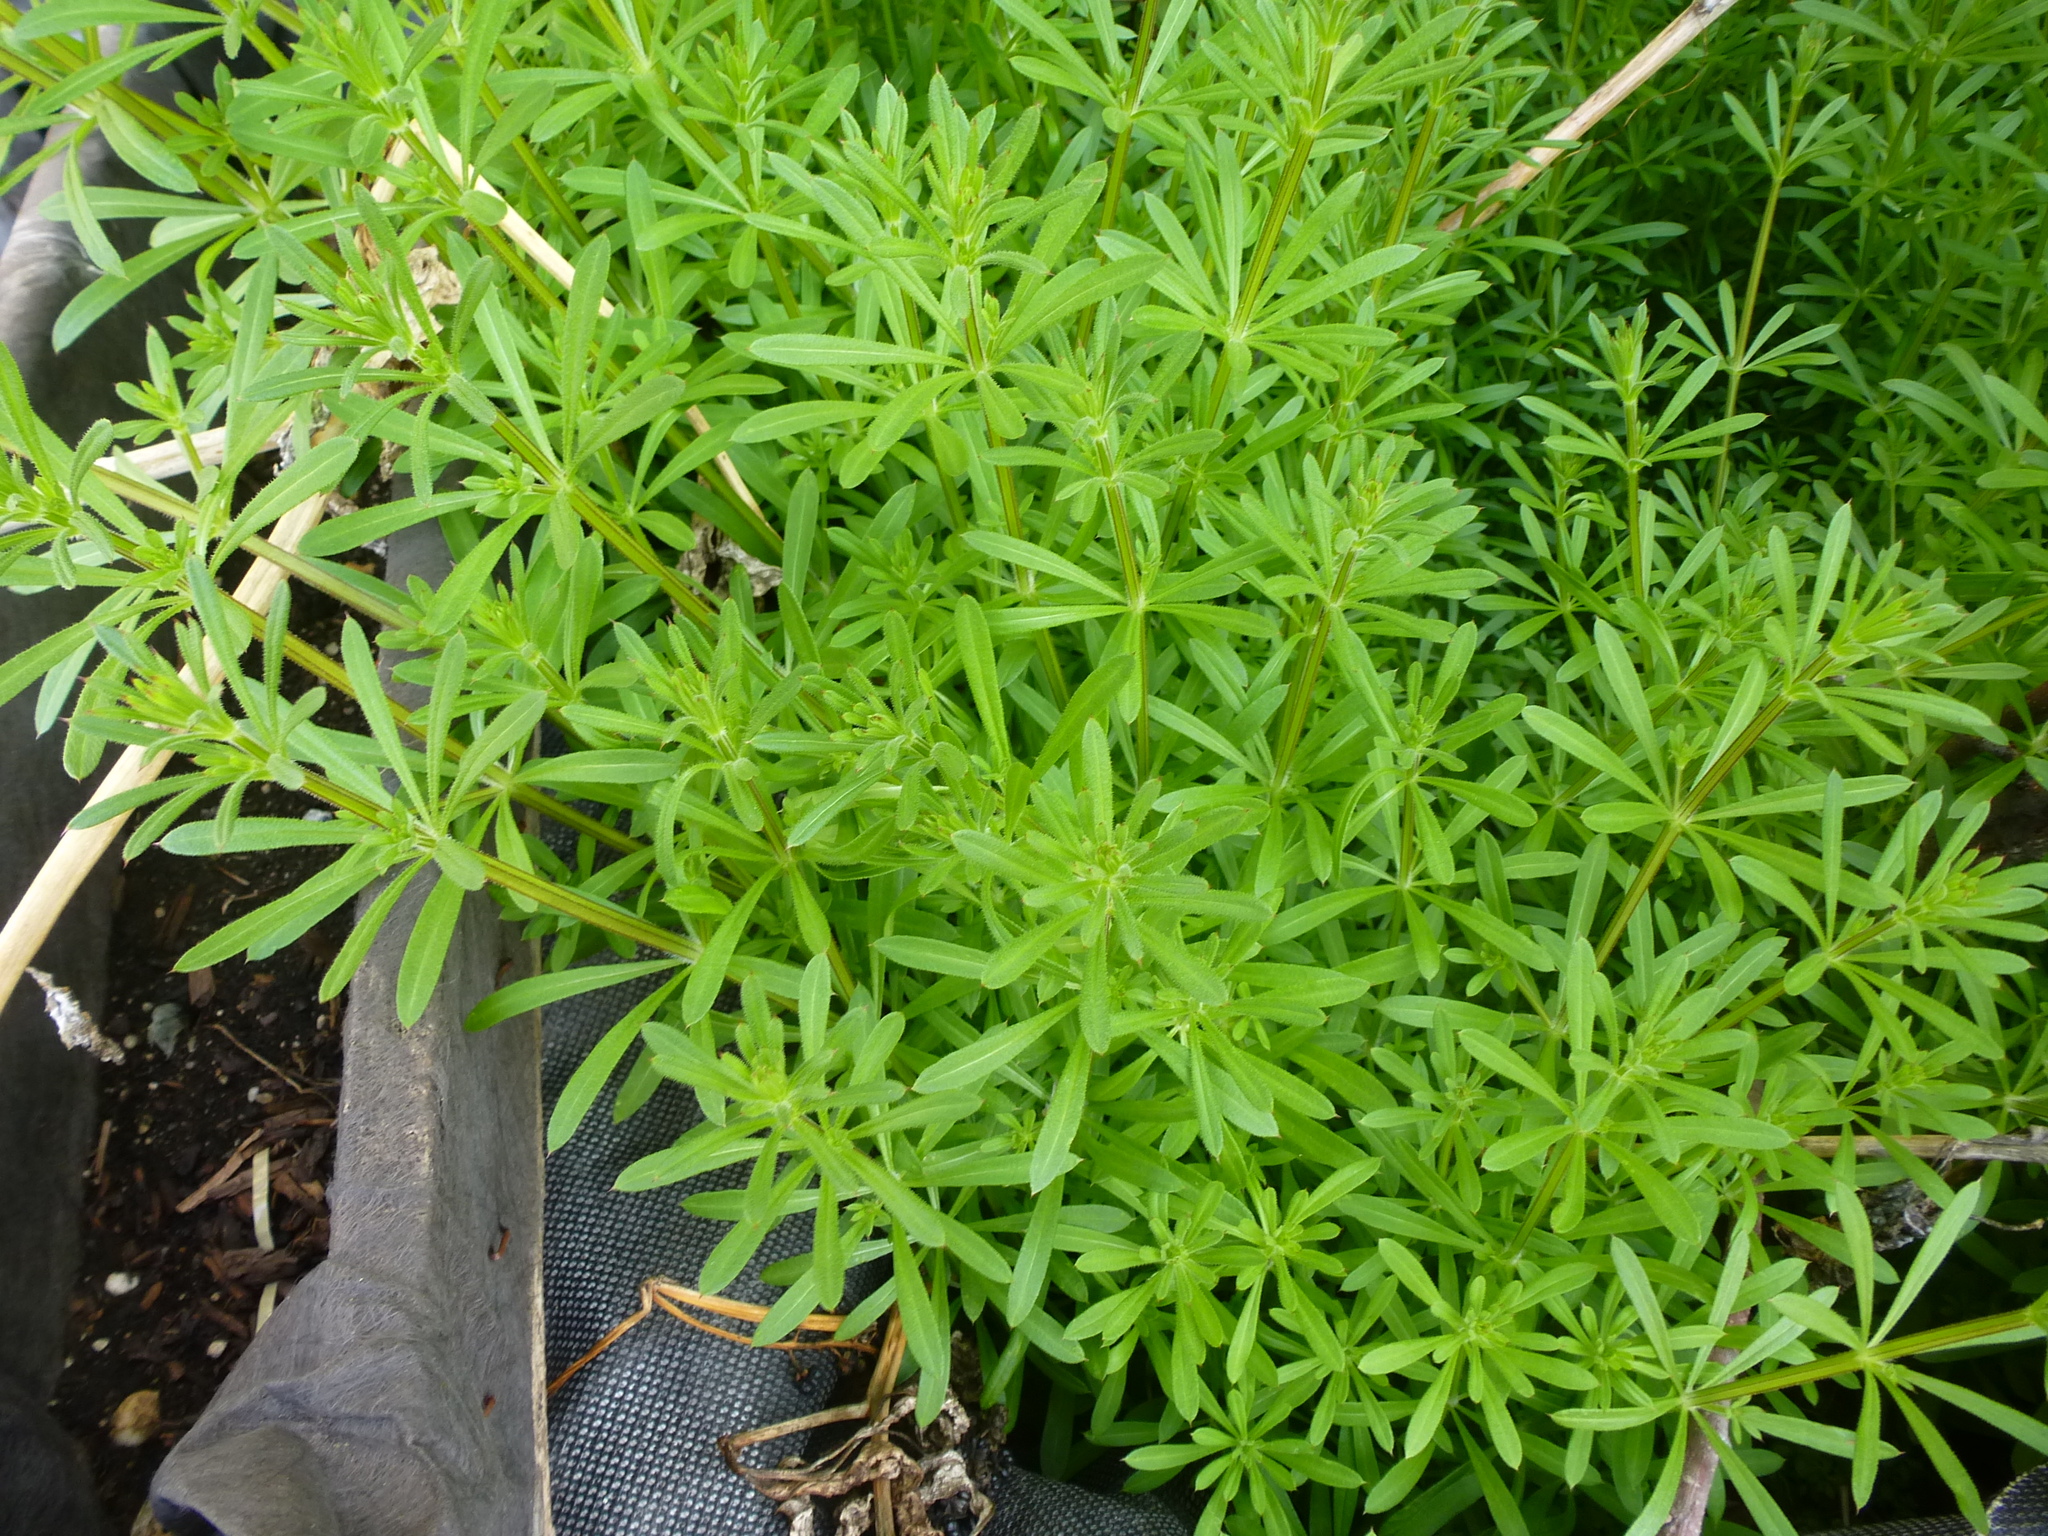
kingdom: Plantae
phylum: Tracheophyta
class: Magnoliopsida
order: Gentianales
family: Rubiaceae
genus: Galium
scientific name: Galium aparine
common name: Cleavers
